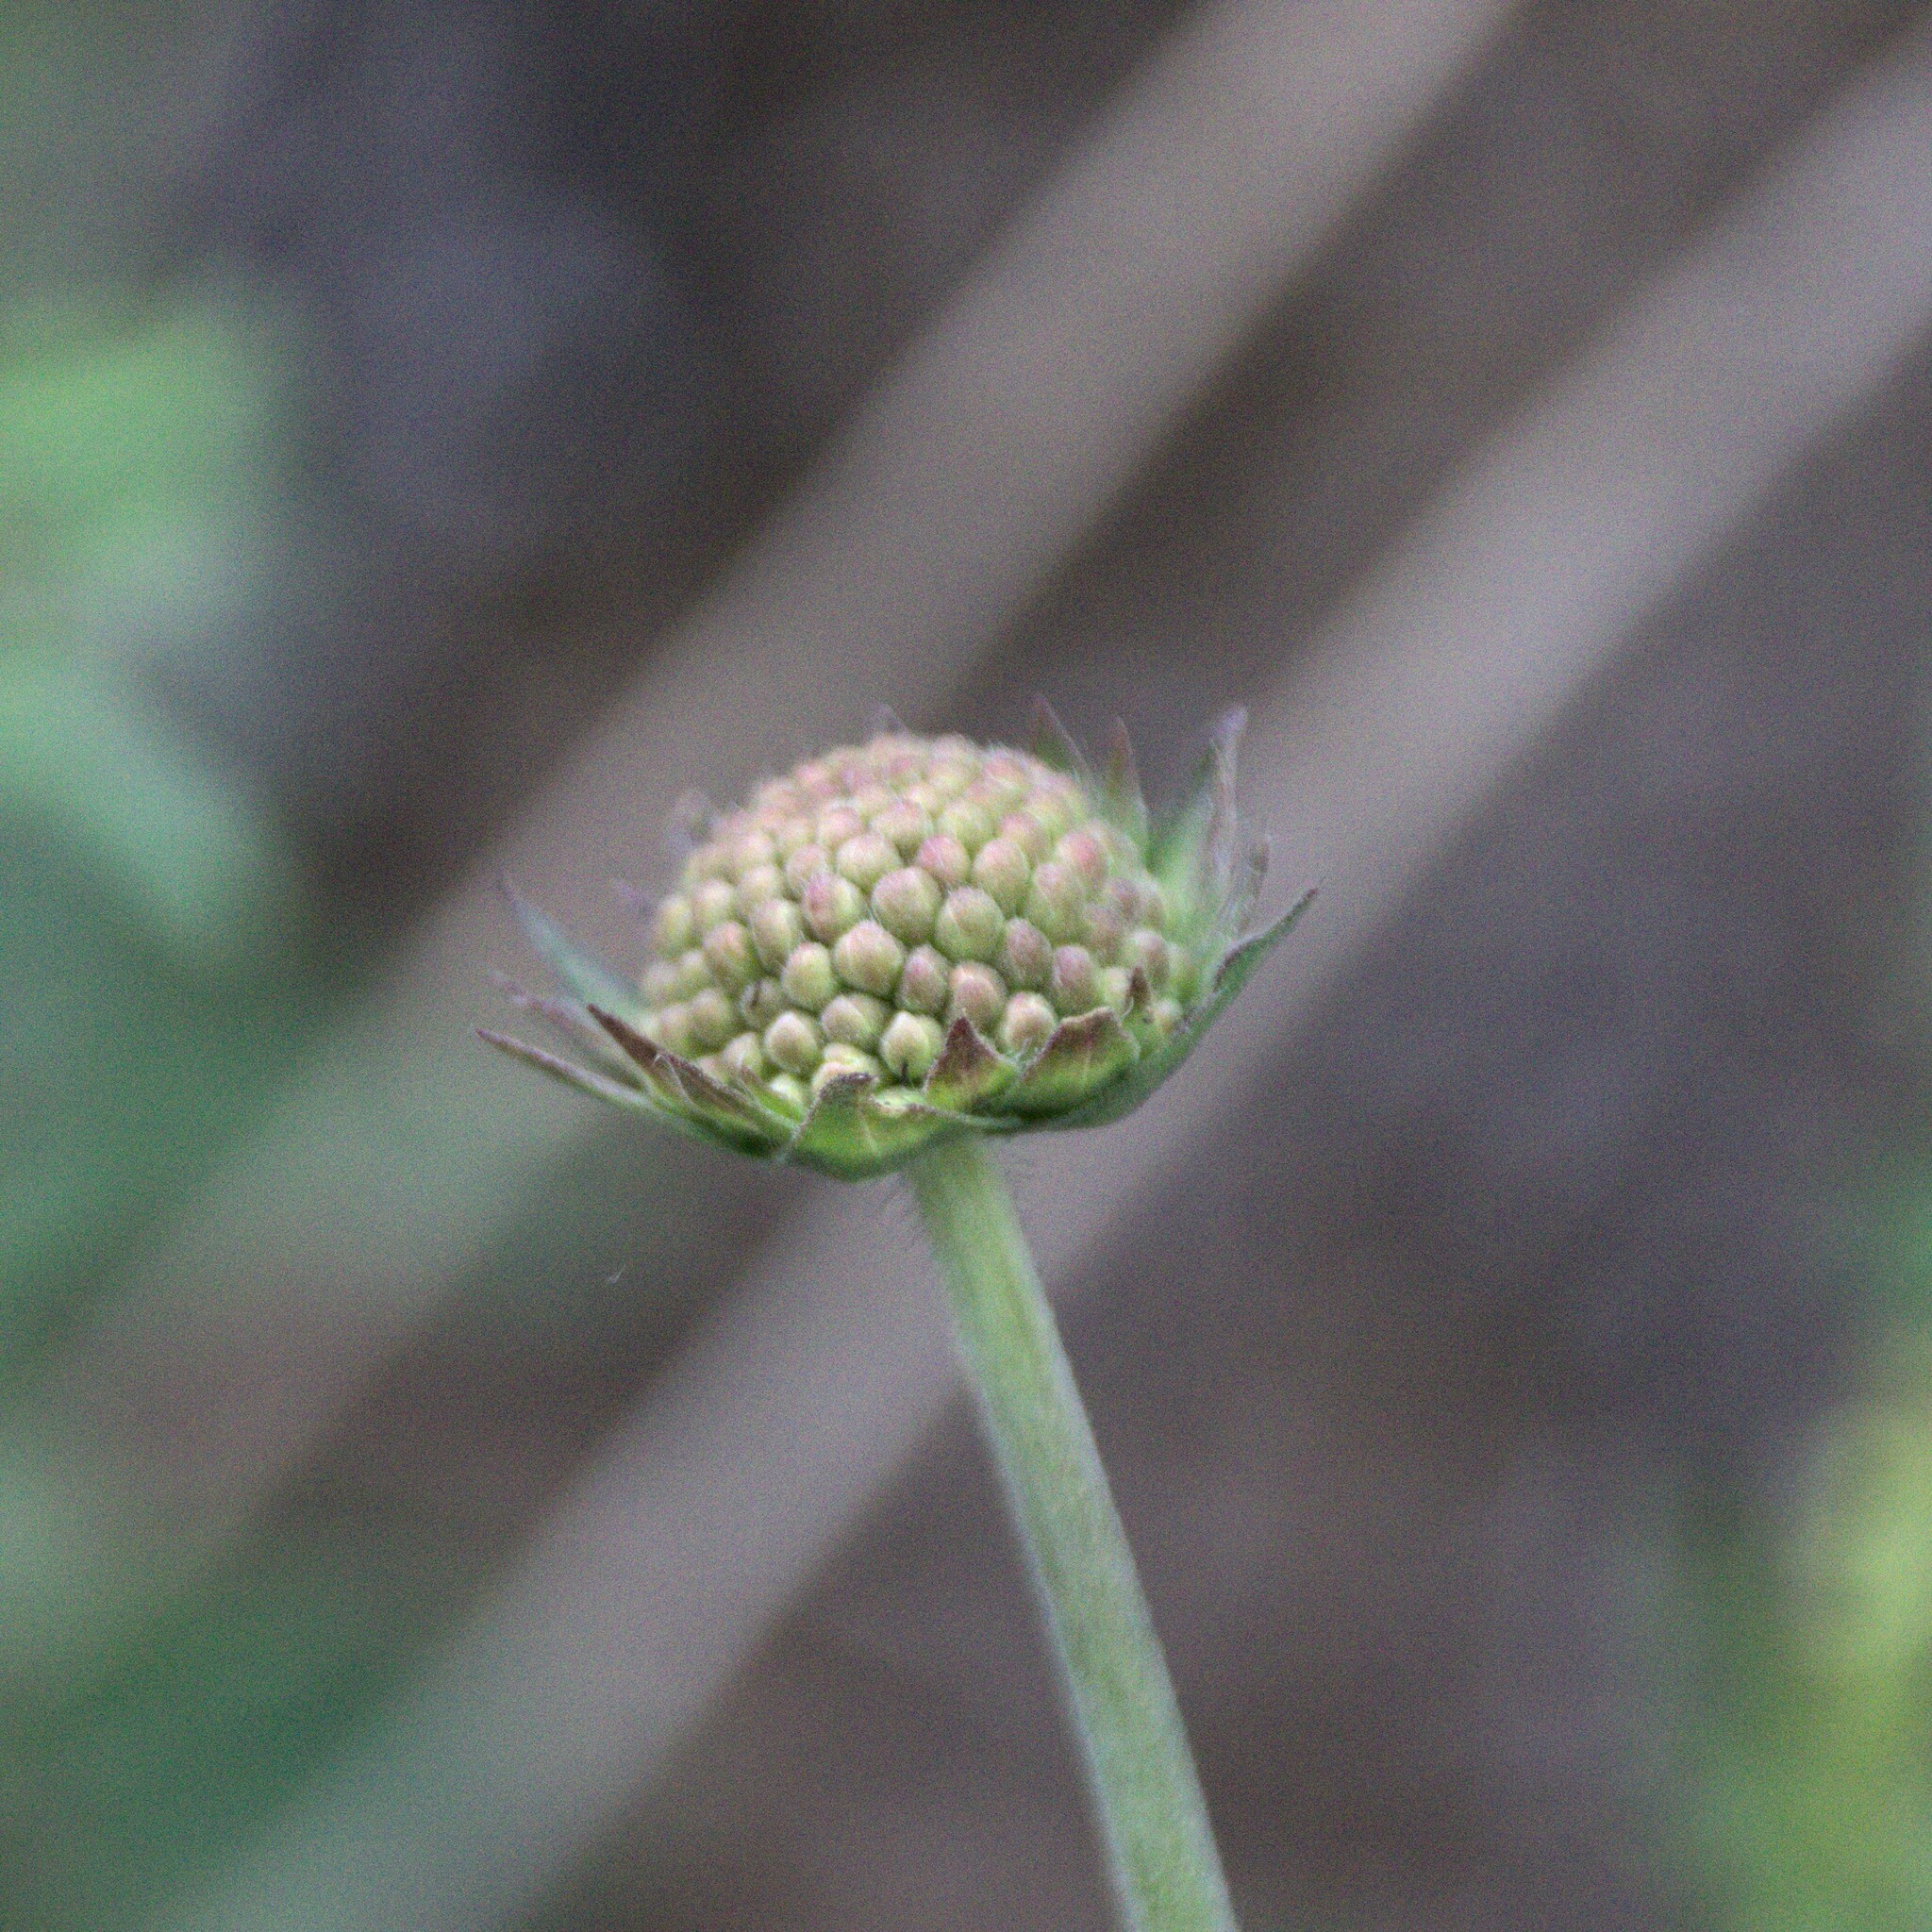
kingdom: Plantae
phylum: Tracheophyta
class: Magnoliopsida
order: Dipsacales
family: Caprifoliaceae
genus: Knautia
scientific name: Knautia arvensis
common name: Field scabiosa
